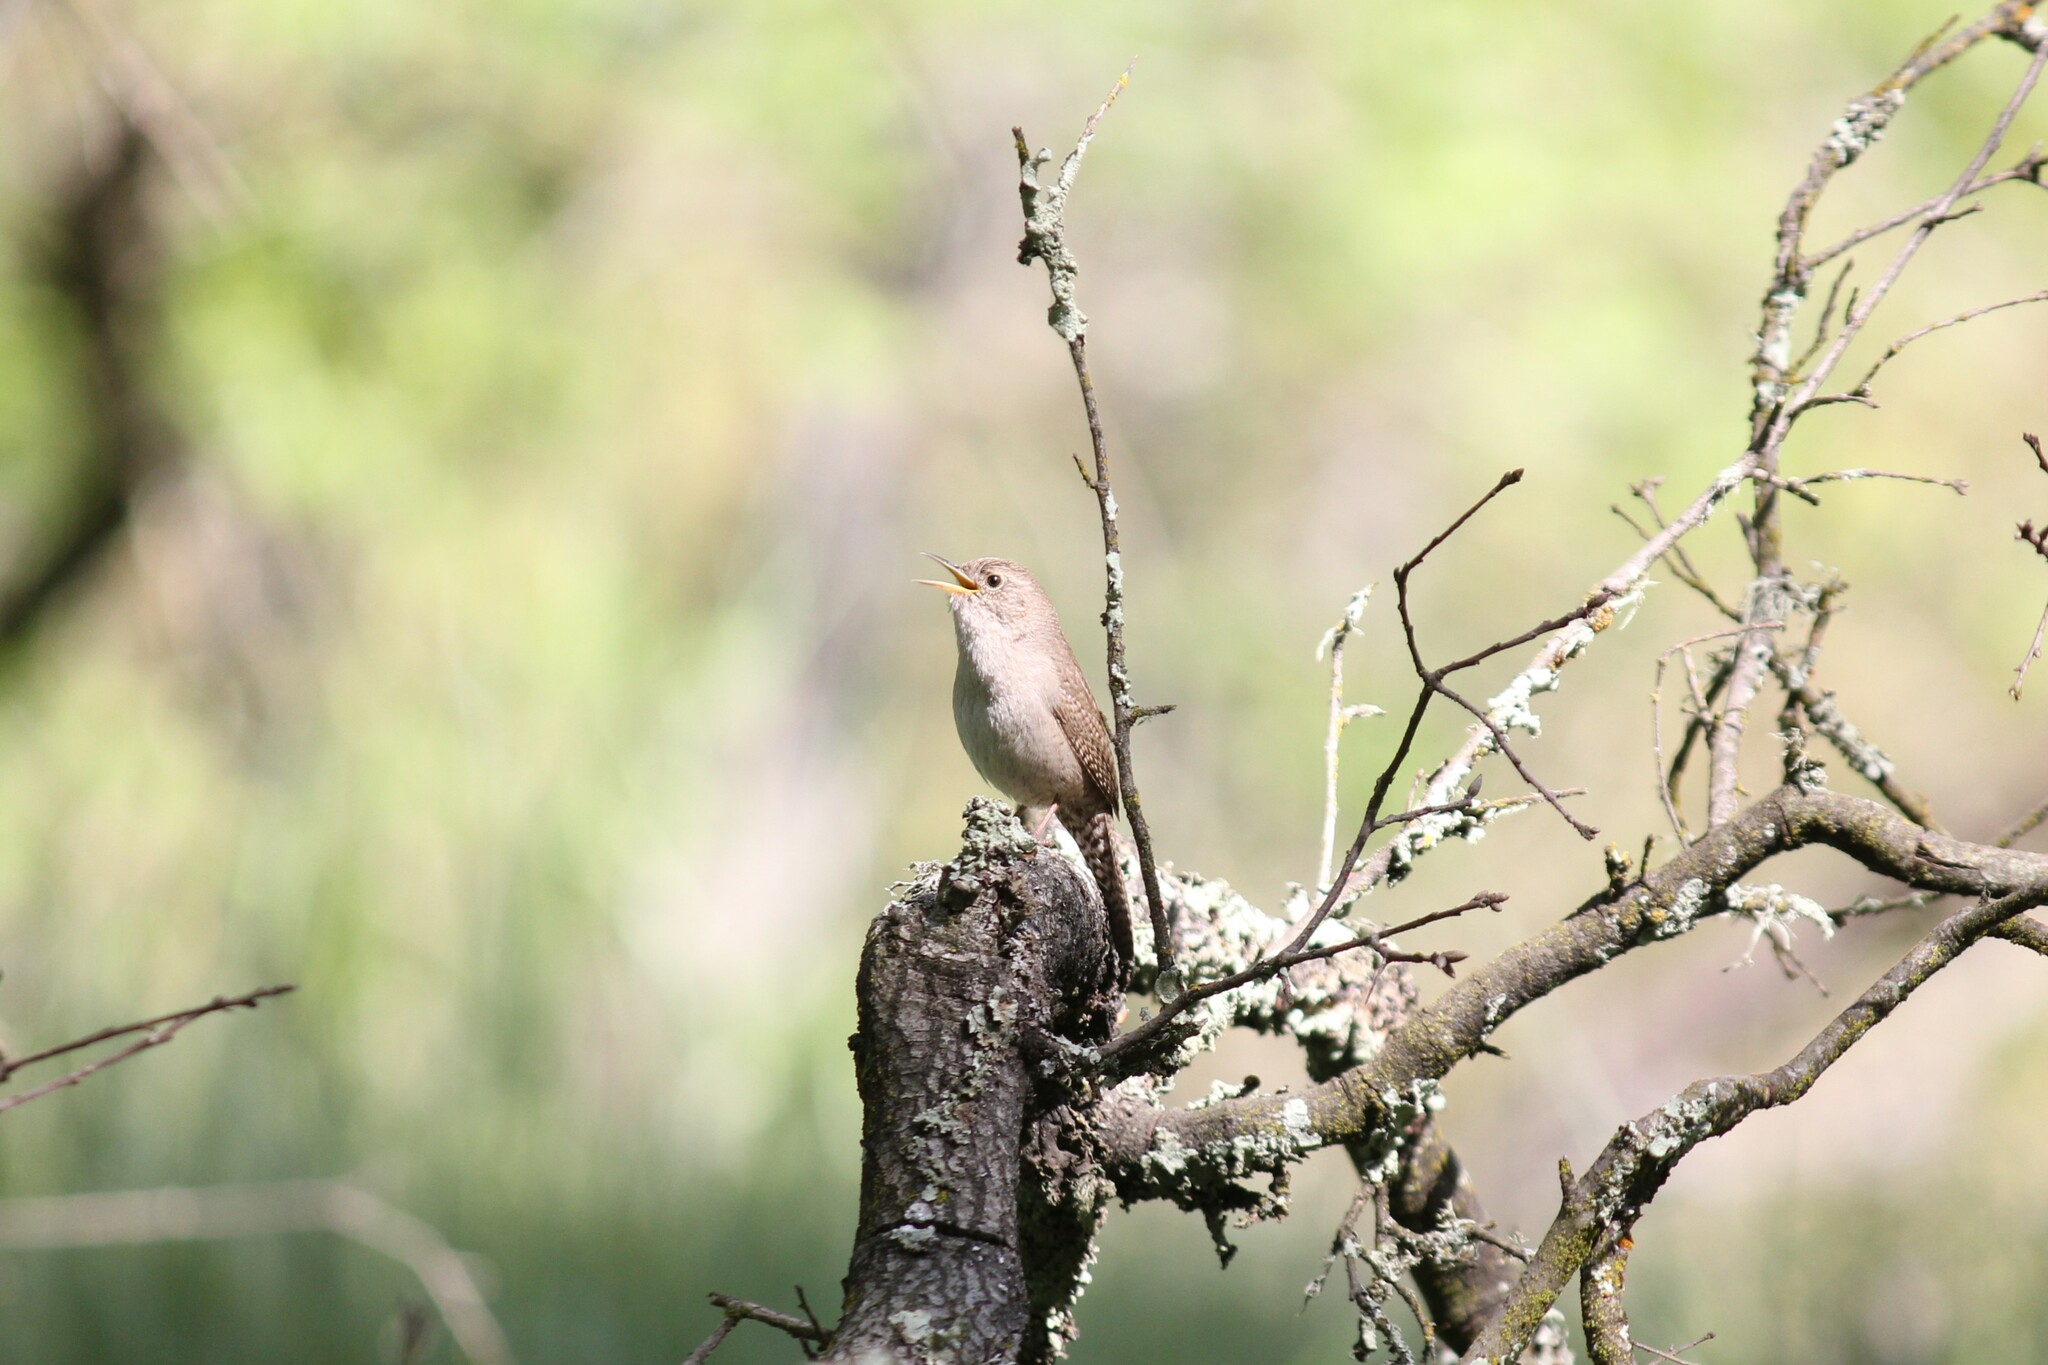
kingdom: Animalia
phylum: Chordata
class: Aves
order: Passeriformes
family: Troglodytidae
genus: Troglodytes
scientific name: Troglodytes aedon
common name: House wren
